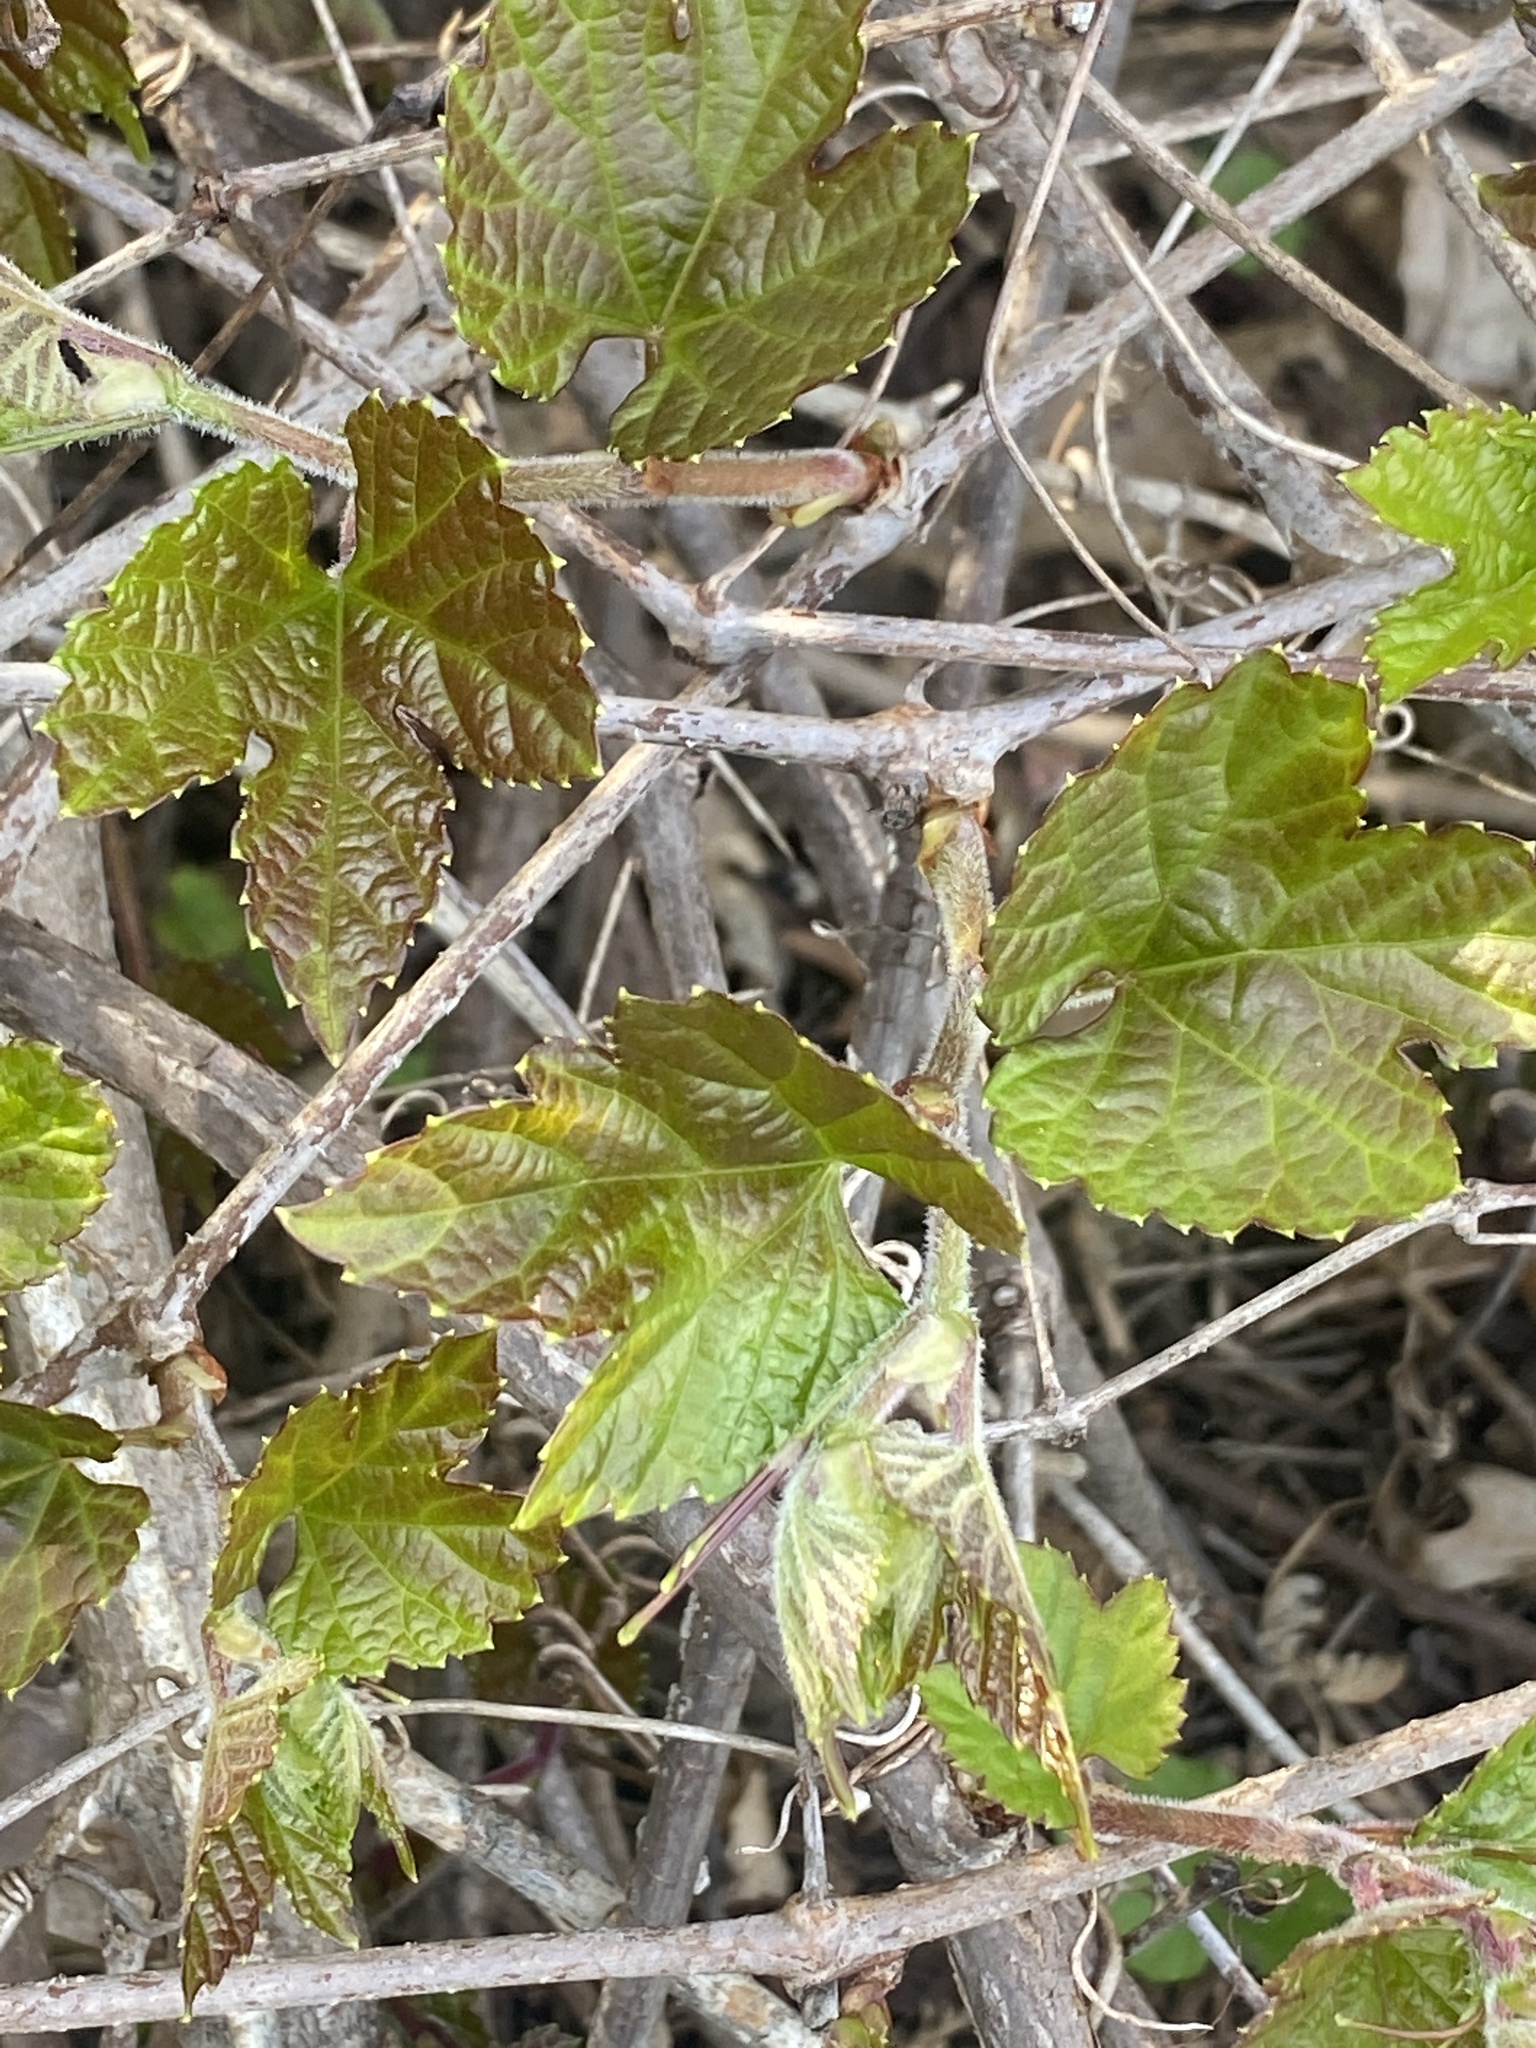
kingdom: Plantae
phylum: Tracheophyta
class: Magnoliopsida
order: Vitales
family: Vitaceae
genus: Ampelopsis
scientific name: Ampelopsis glandulosa
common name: Amur peppervine
